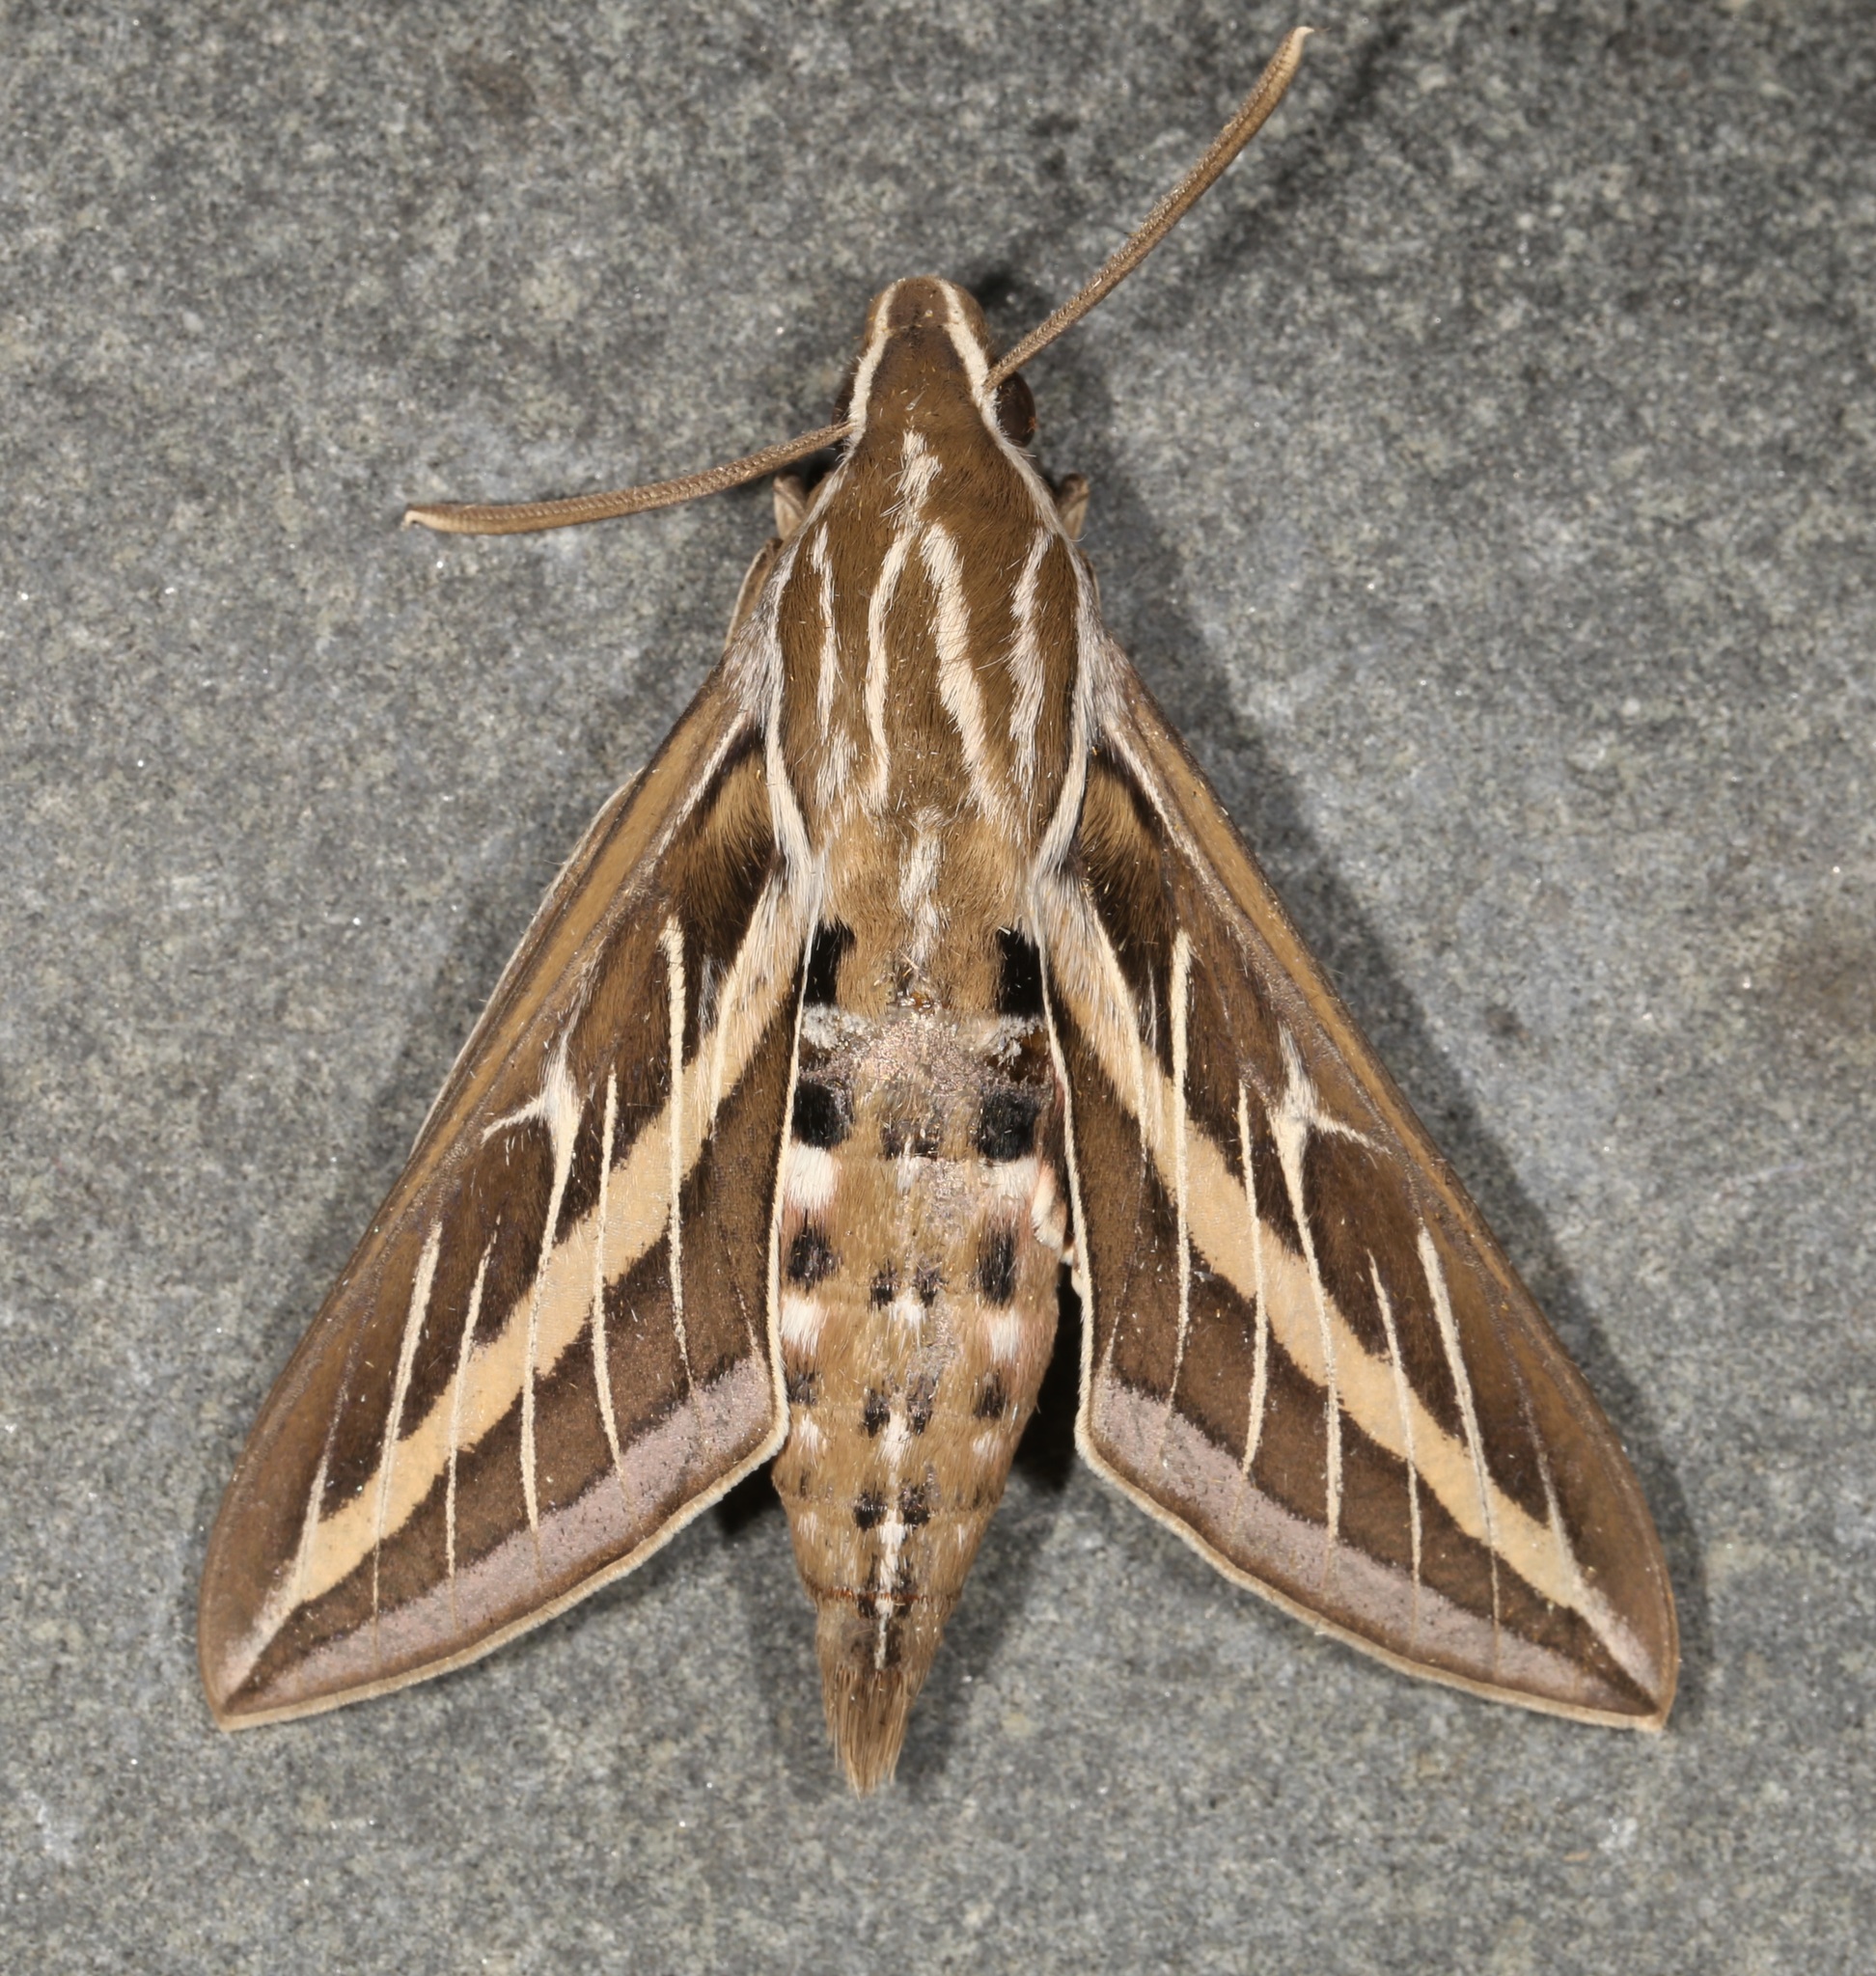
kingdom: Animalia
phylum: Arthropoda
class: Insecta
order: Lepidoptera
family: Sphingidae
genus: Hyles
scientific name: Hyles lineata
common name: White-lined sphinx
